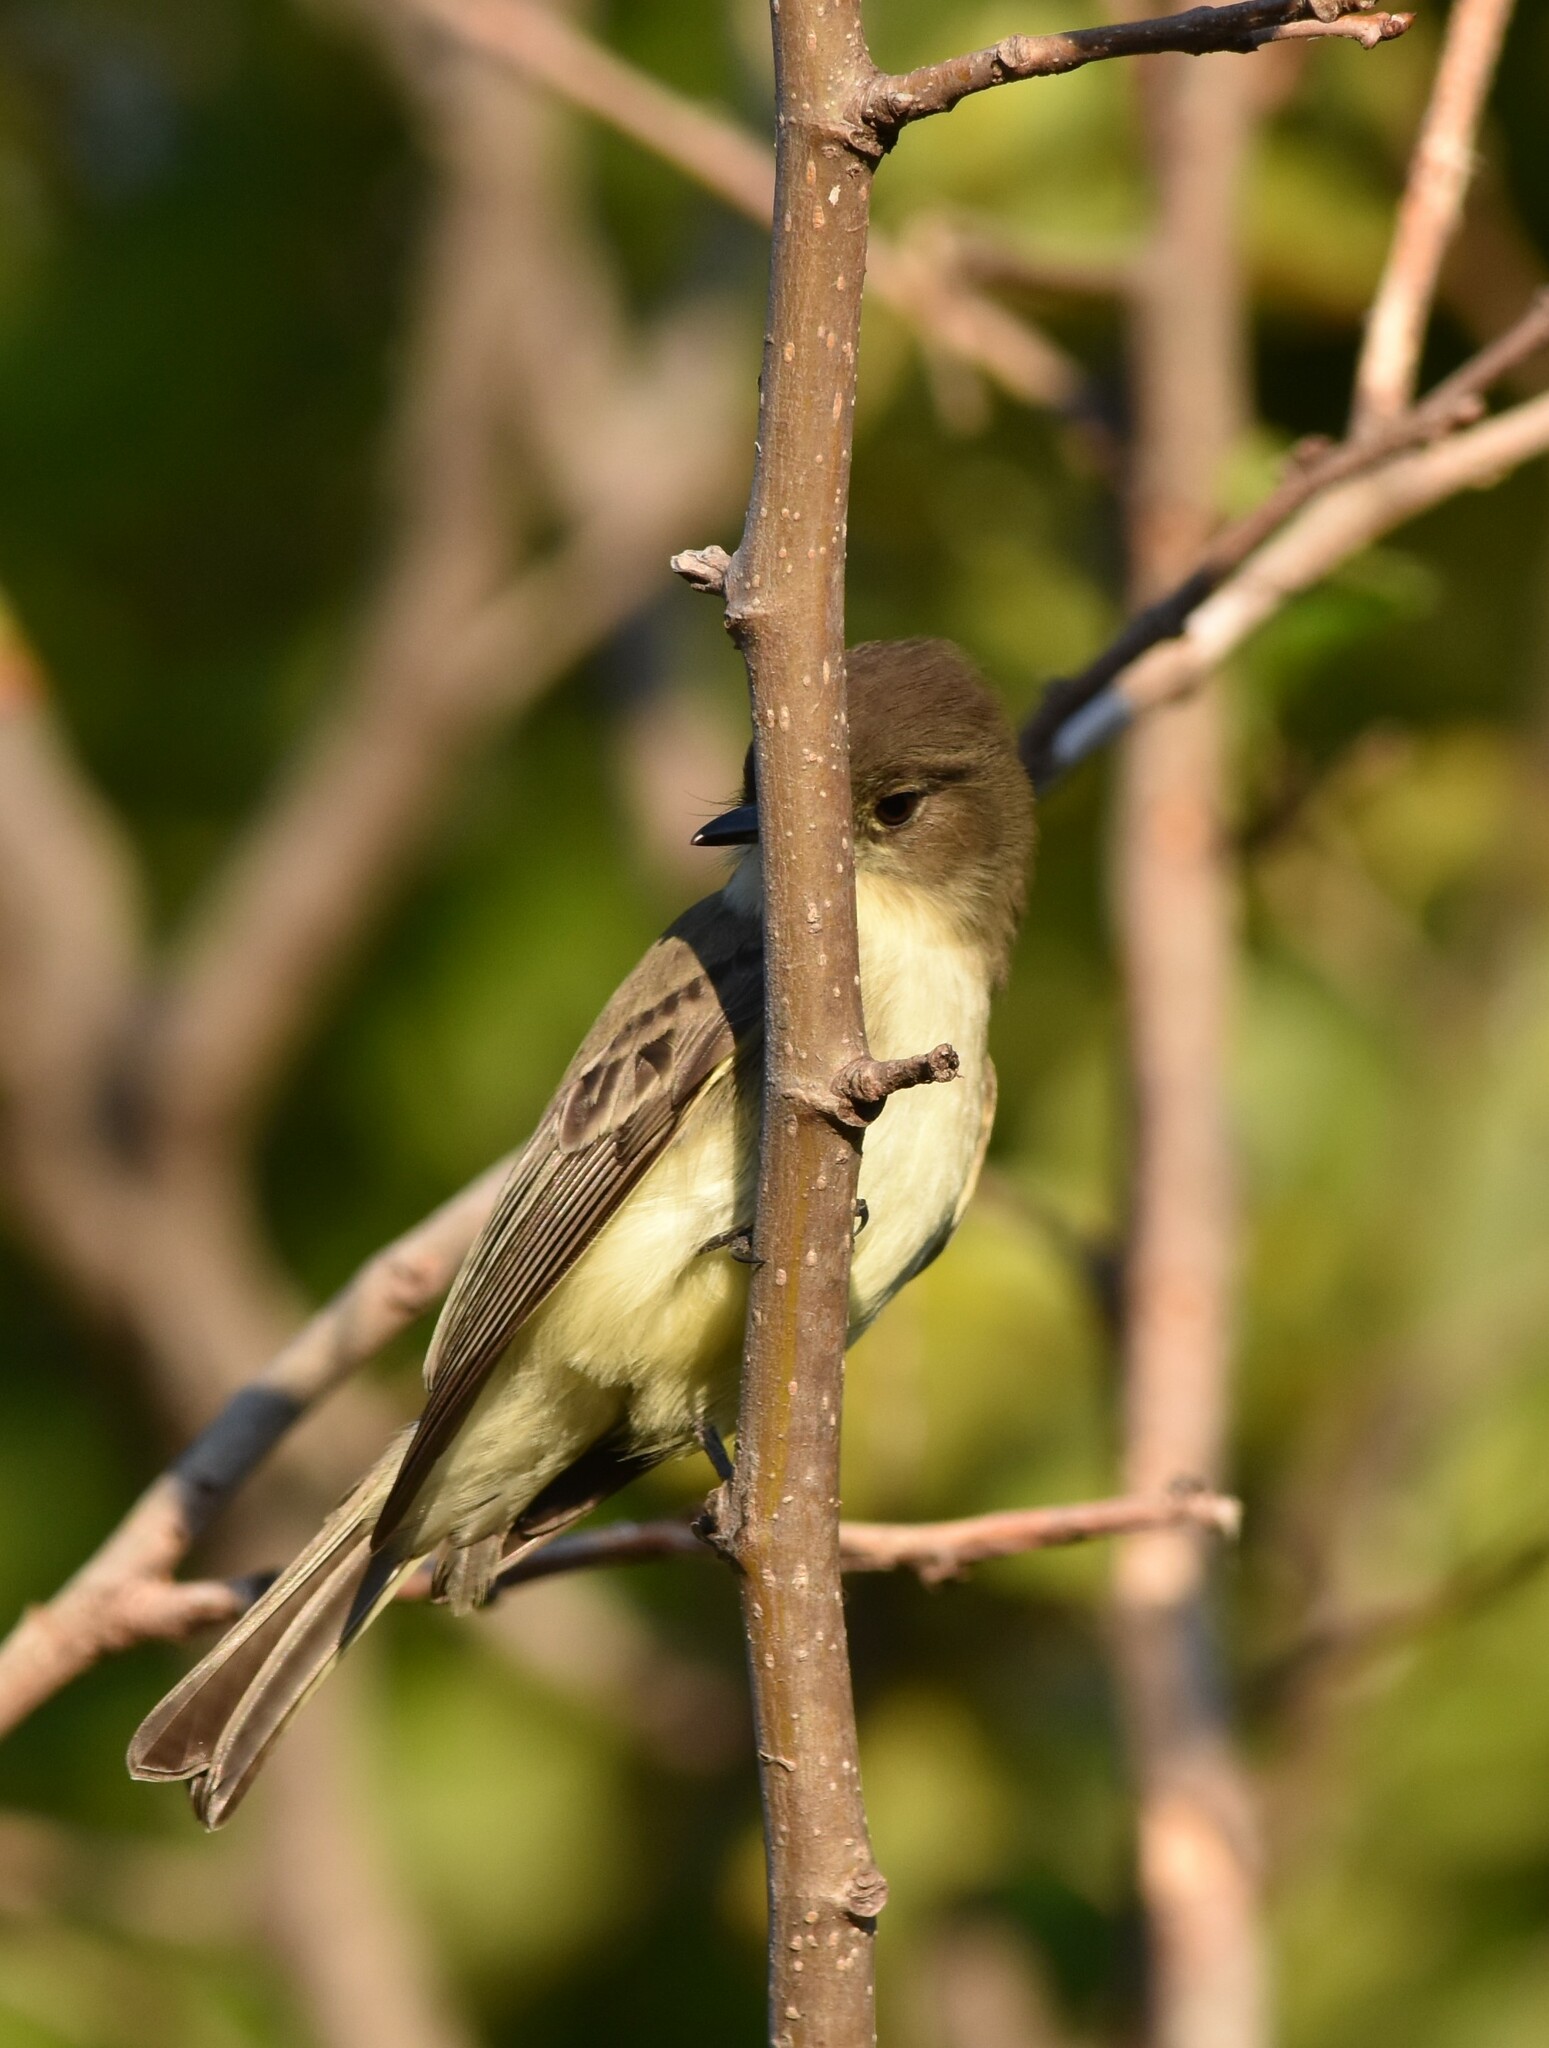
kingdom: Animalia
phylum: Chordata
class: Aves
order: Passeriformes
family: Tyrannidae
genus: Sayornis
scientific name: Sayornis phoebe
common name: Eastern phoebe
